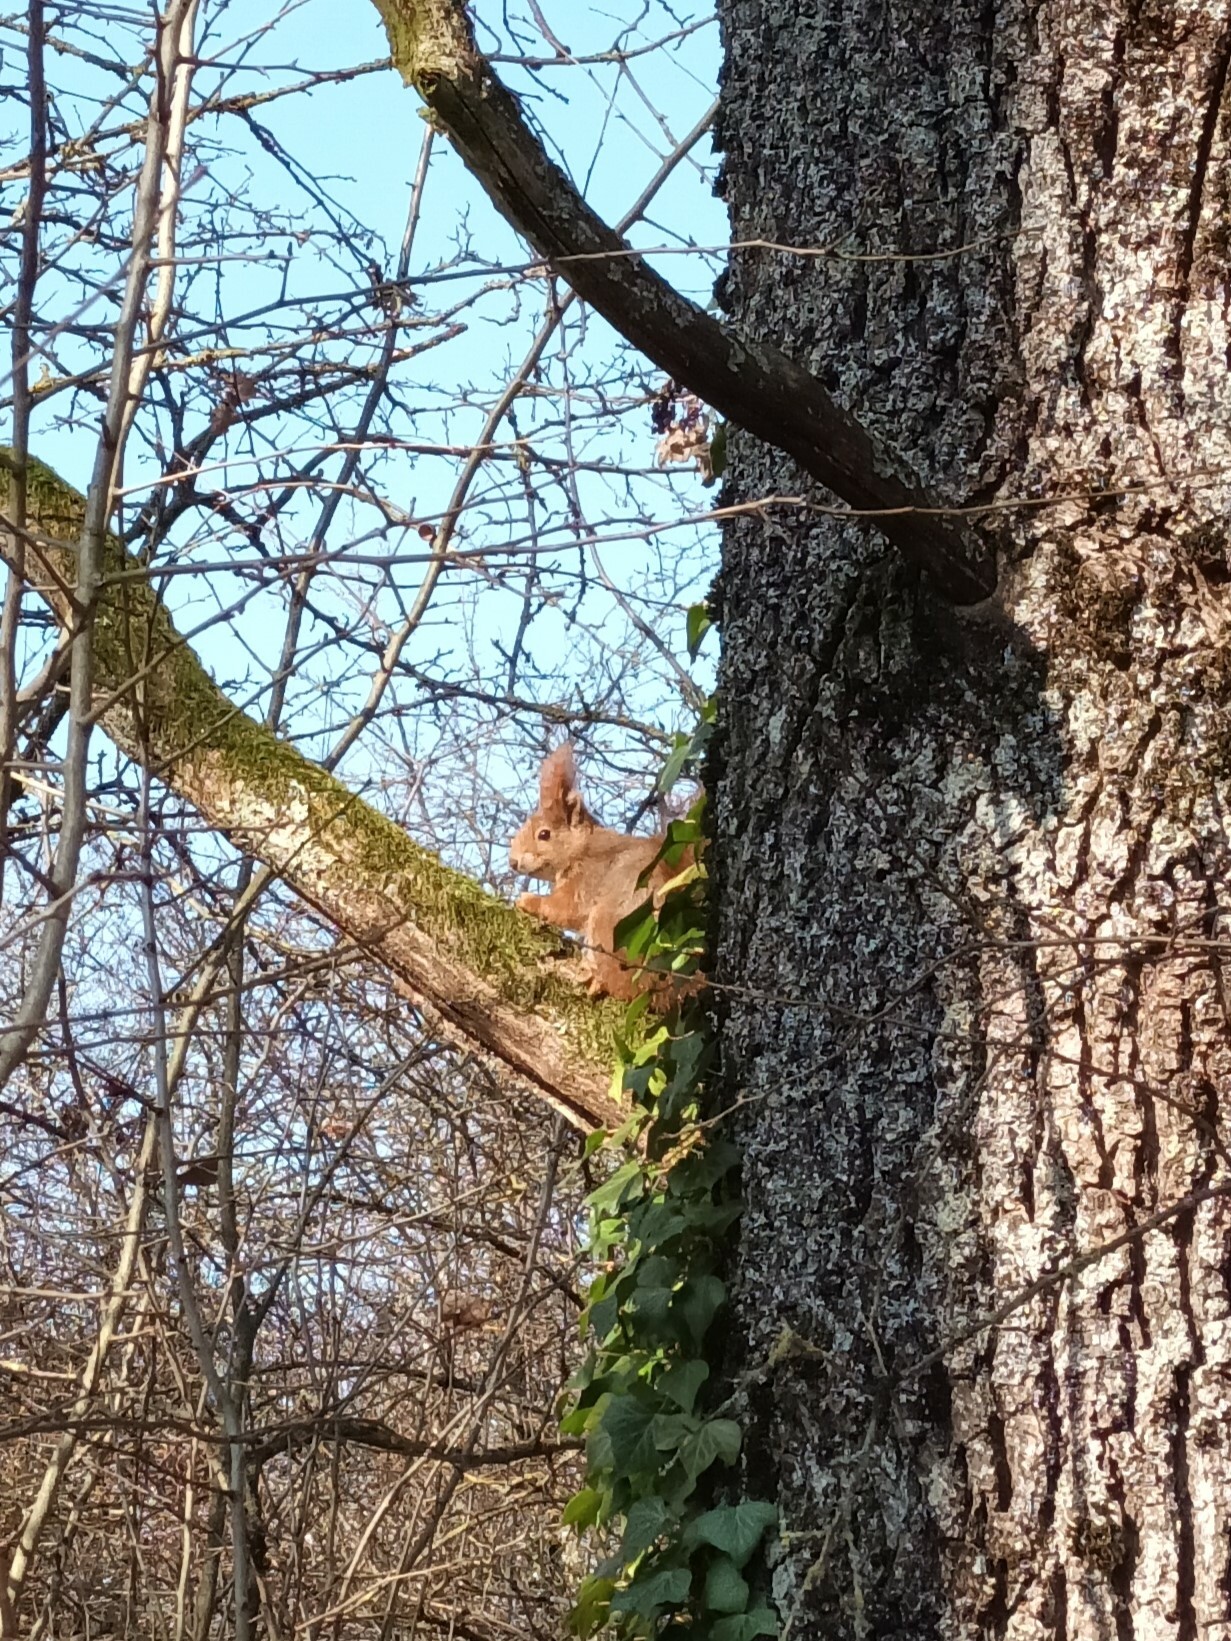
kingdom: Animalia
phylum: Chordata
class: Mammalia
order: Rodentia
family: Sciuridae
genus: Sciurus
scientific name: Sciurus vulgaris
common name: Eurasian red squirrel
